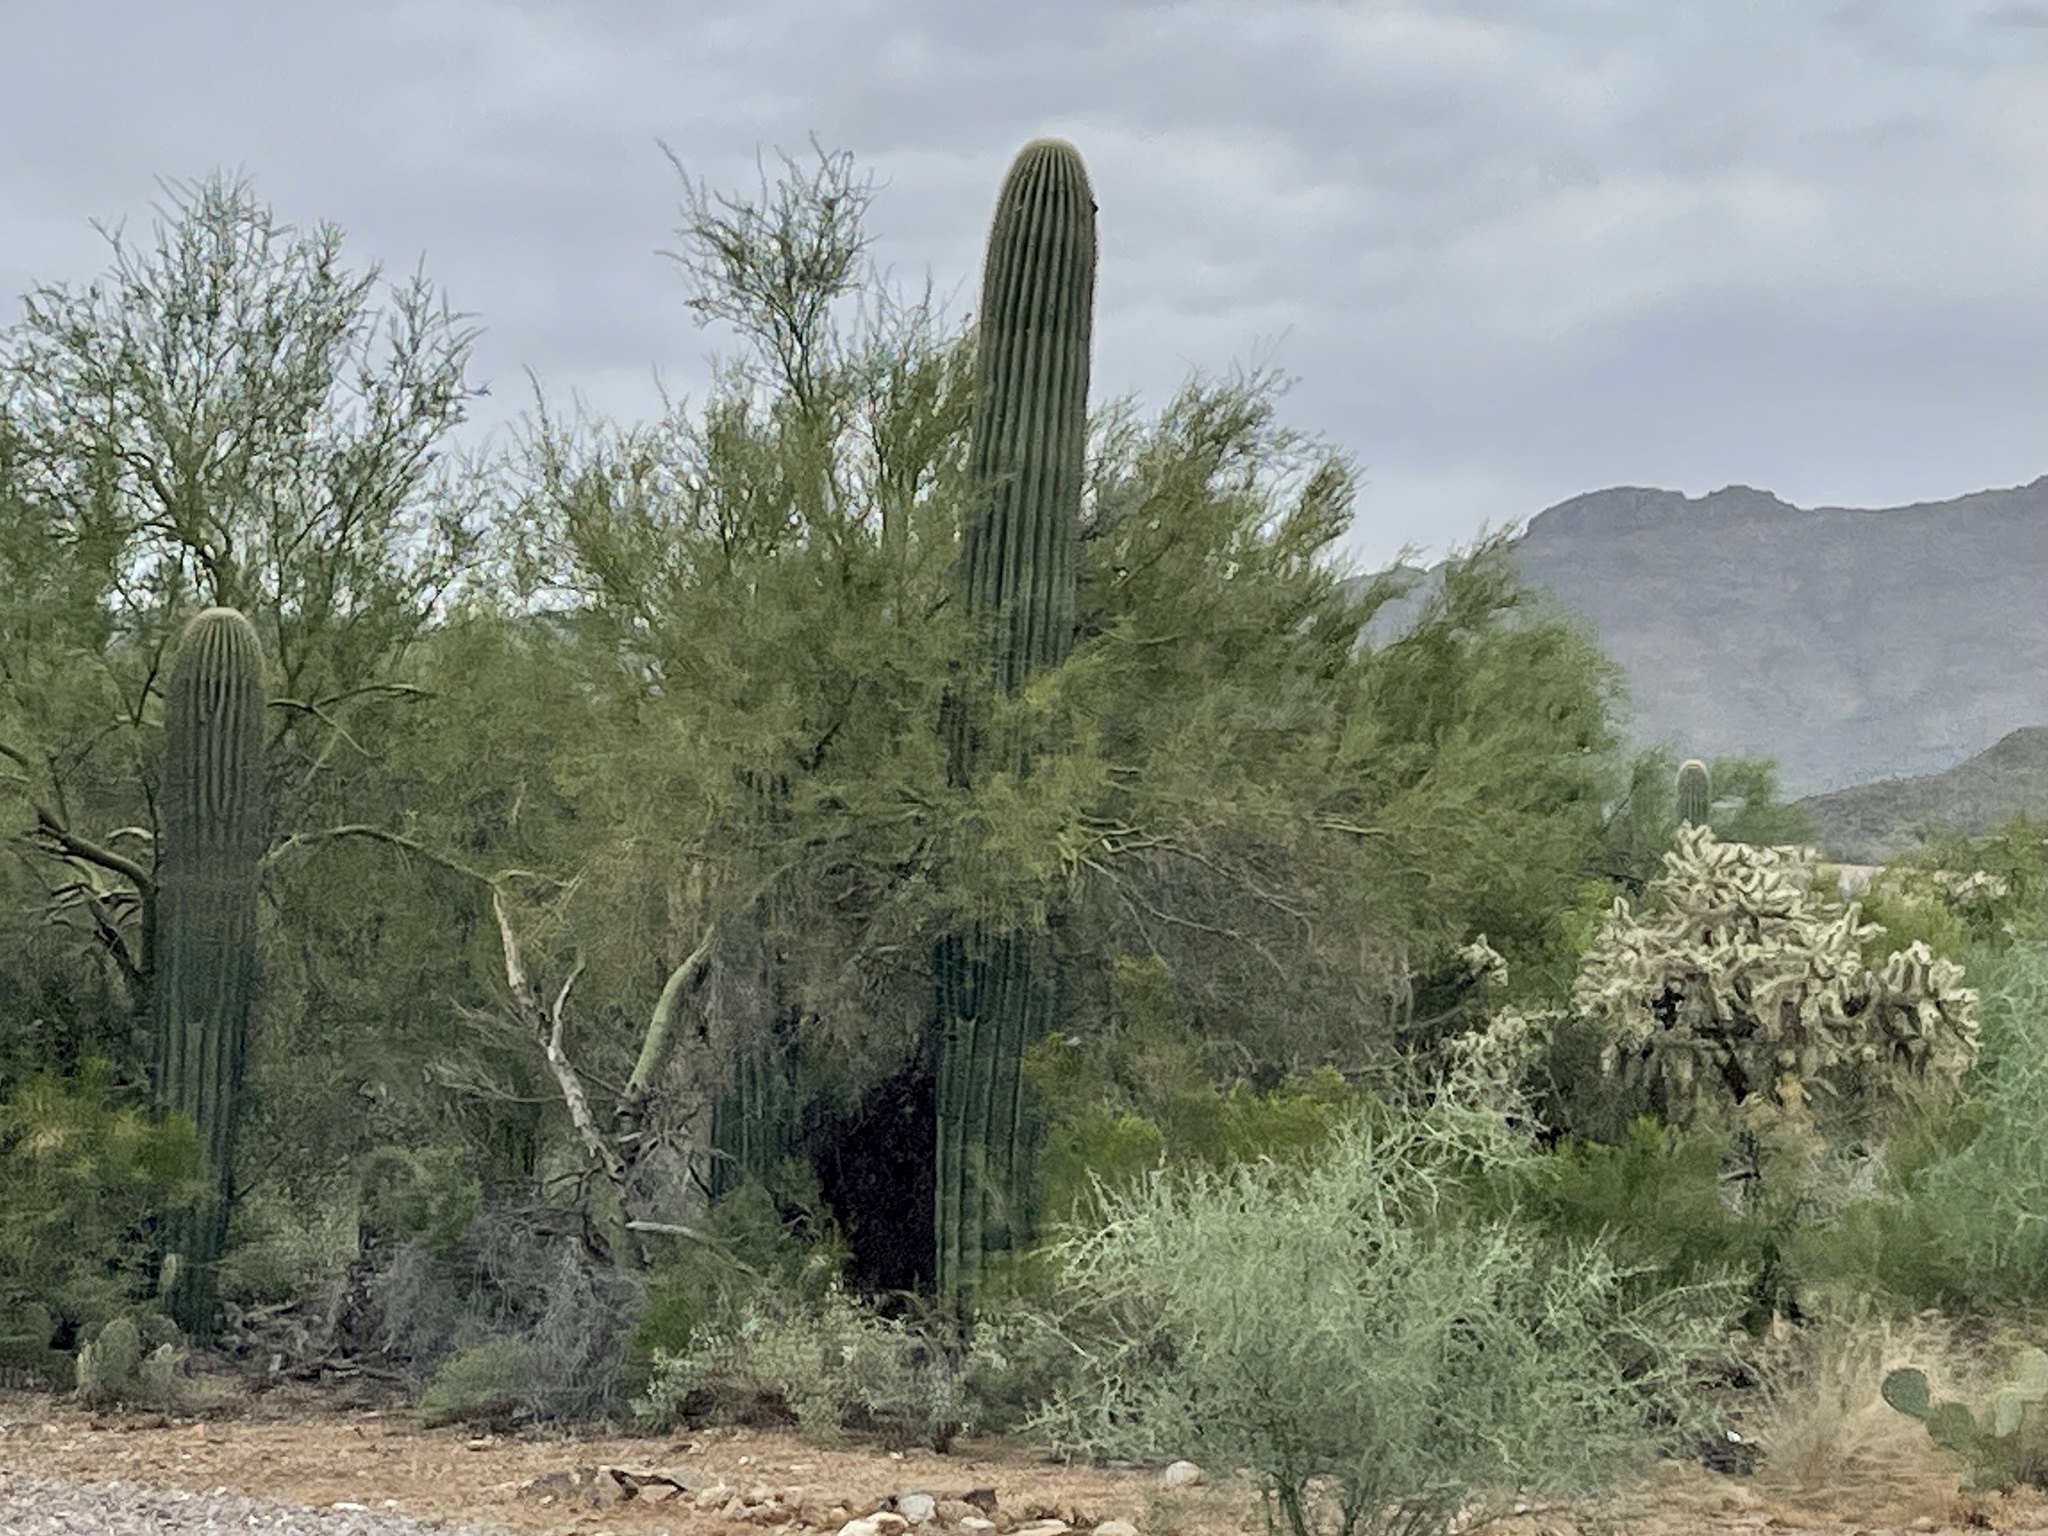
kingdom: Plantae
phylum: Tracheophyta
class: Magnoliopsida
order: Caryophyllales
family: Cactaceae
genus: Carnegiea
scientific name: Carnegiea gigantea
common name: Saguaro
